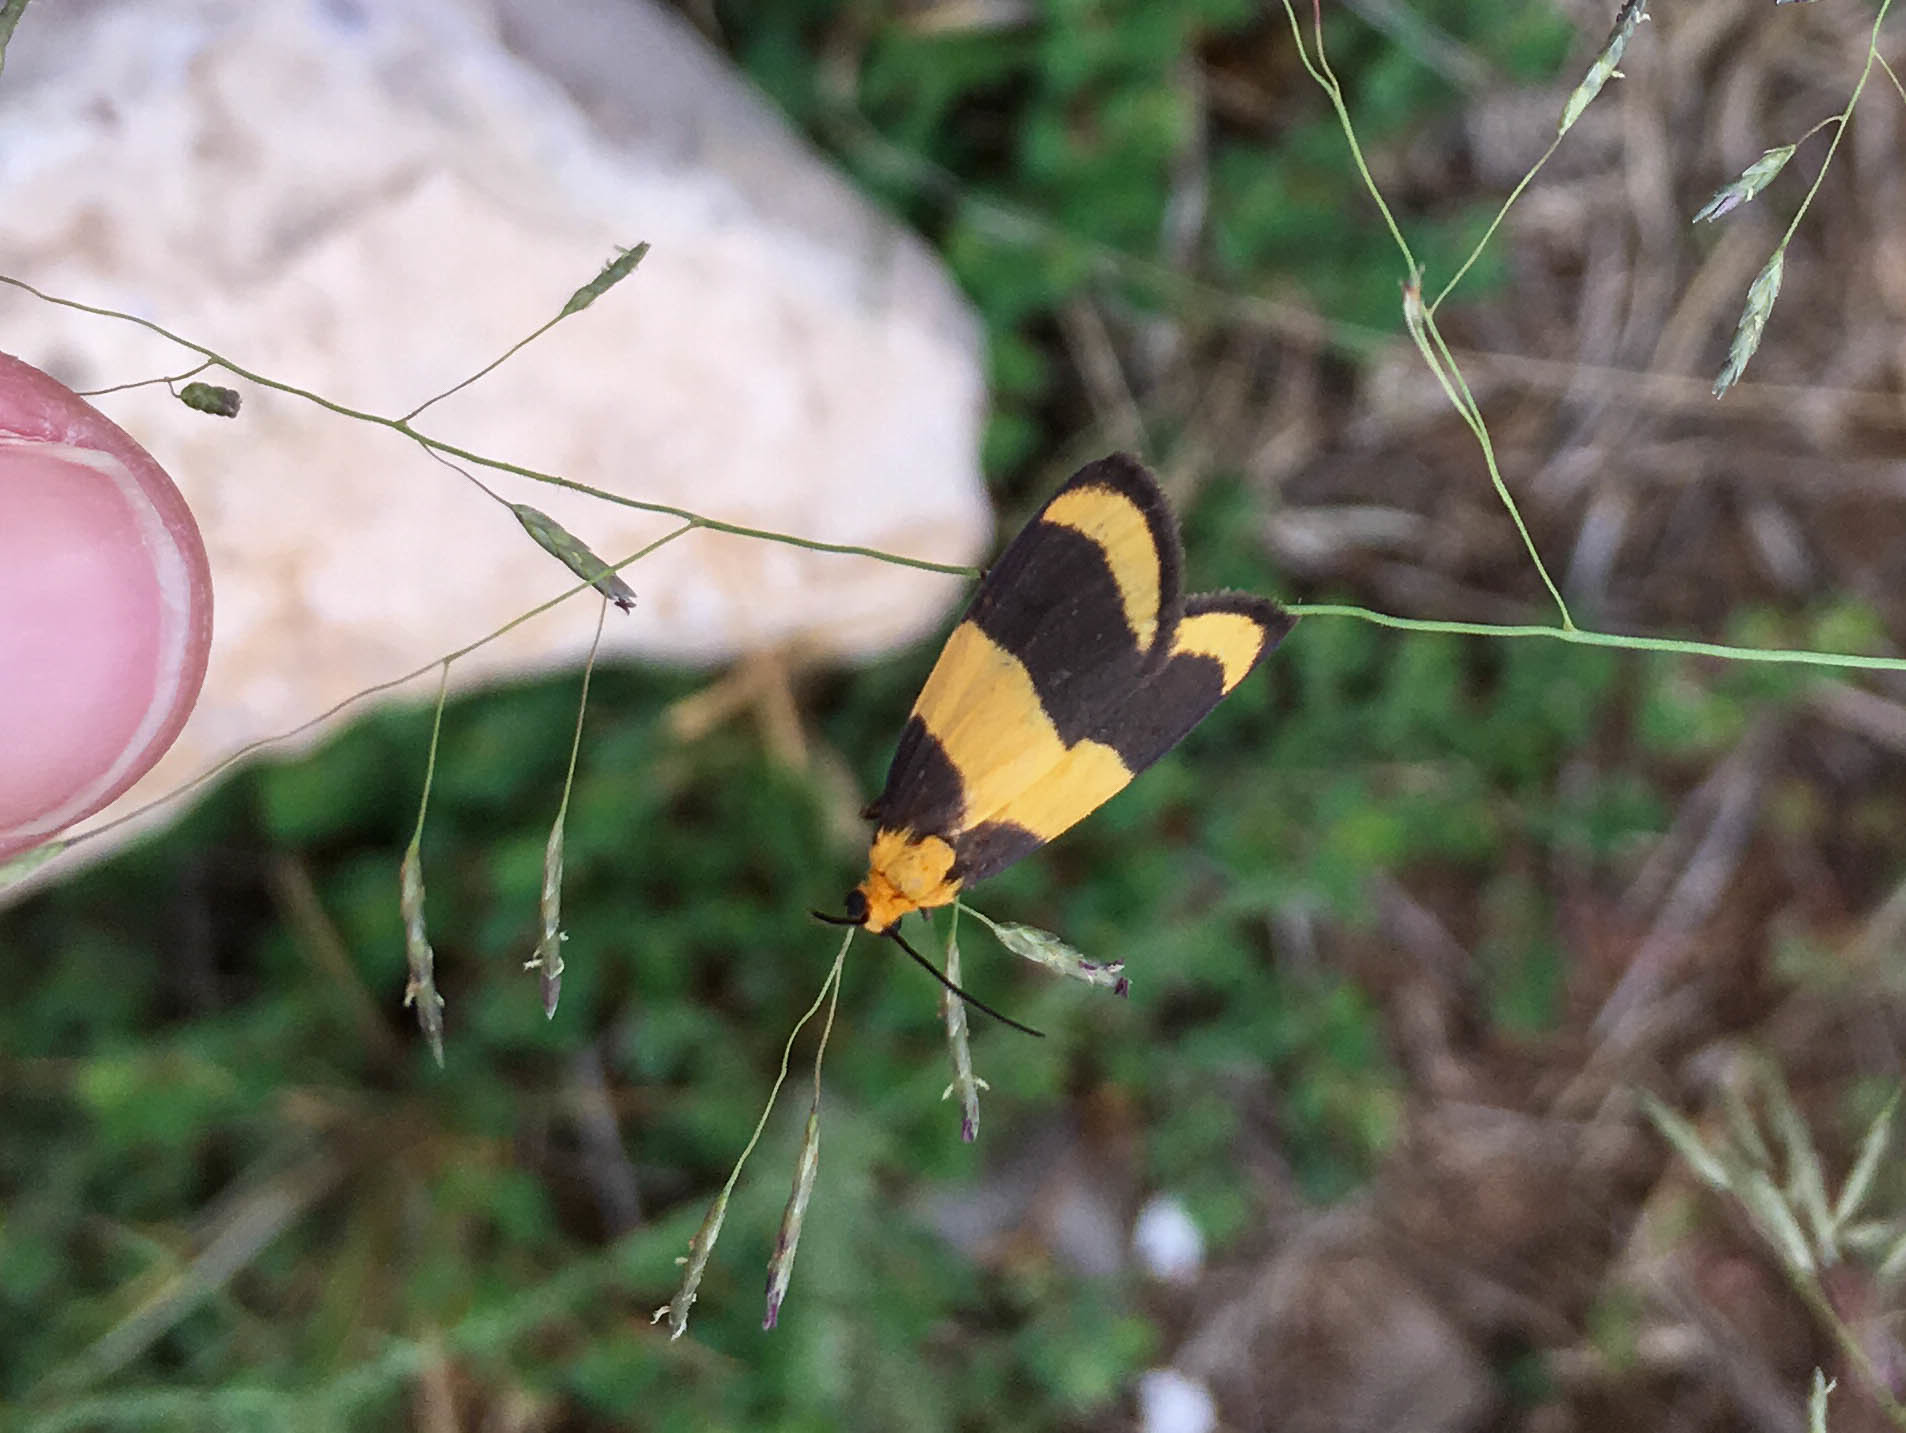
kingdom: Animalia
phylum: Arthropoda
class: Insecta
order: Lepidoptera
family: Erebidae
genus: Eudesmia
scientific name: Eudesmia arida
